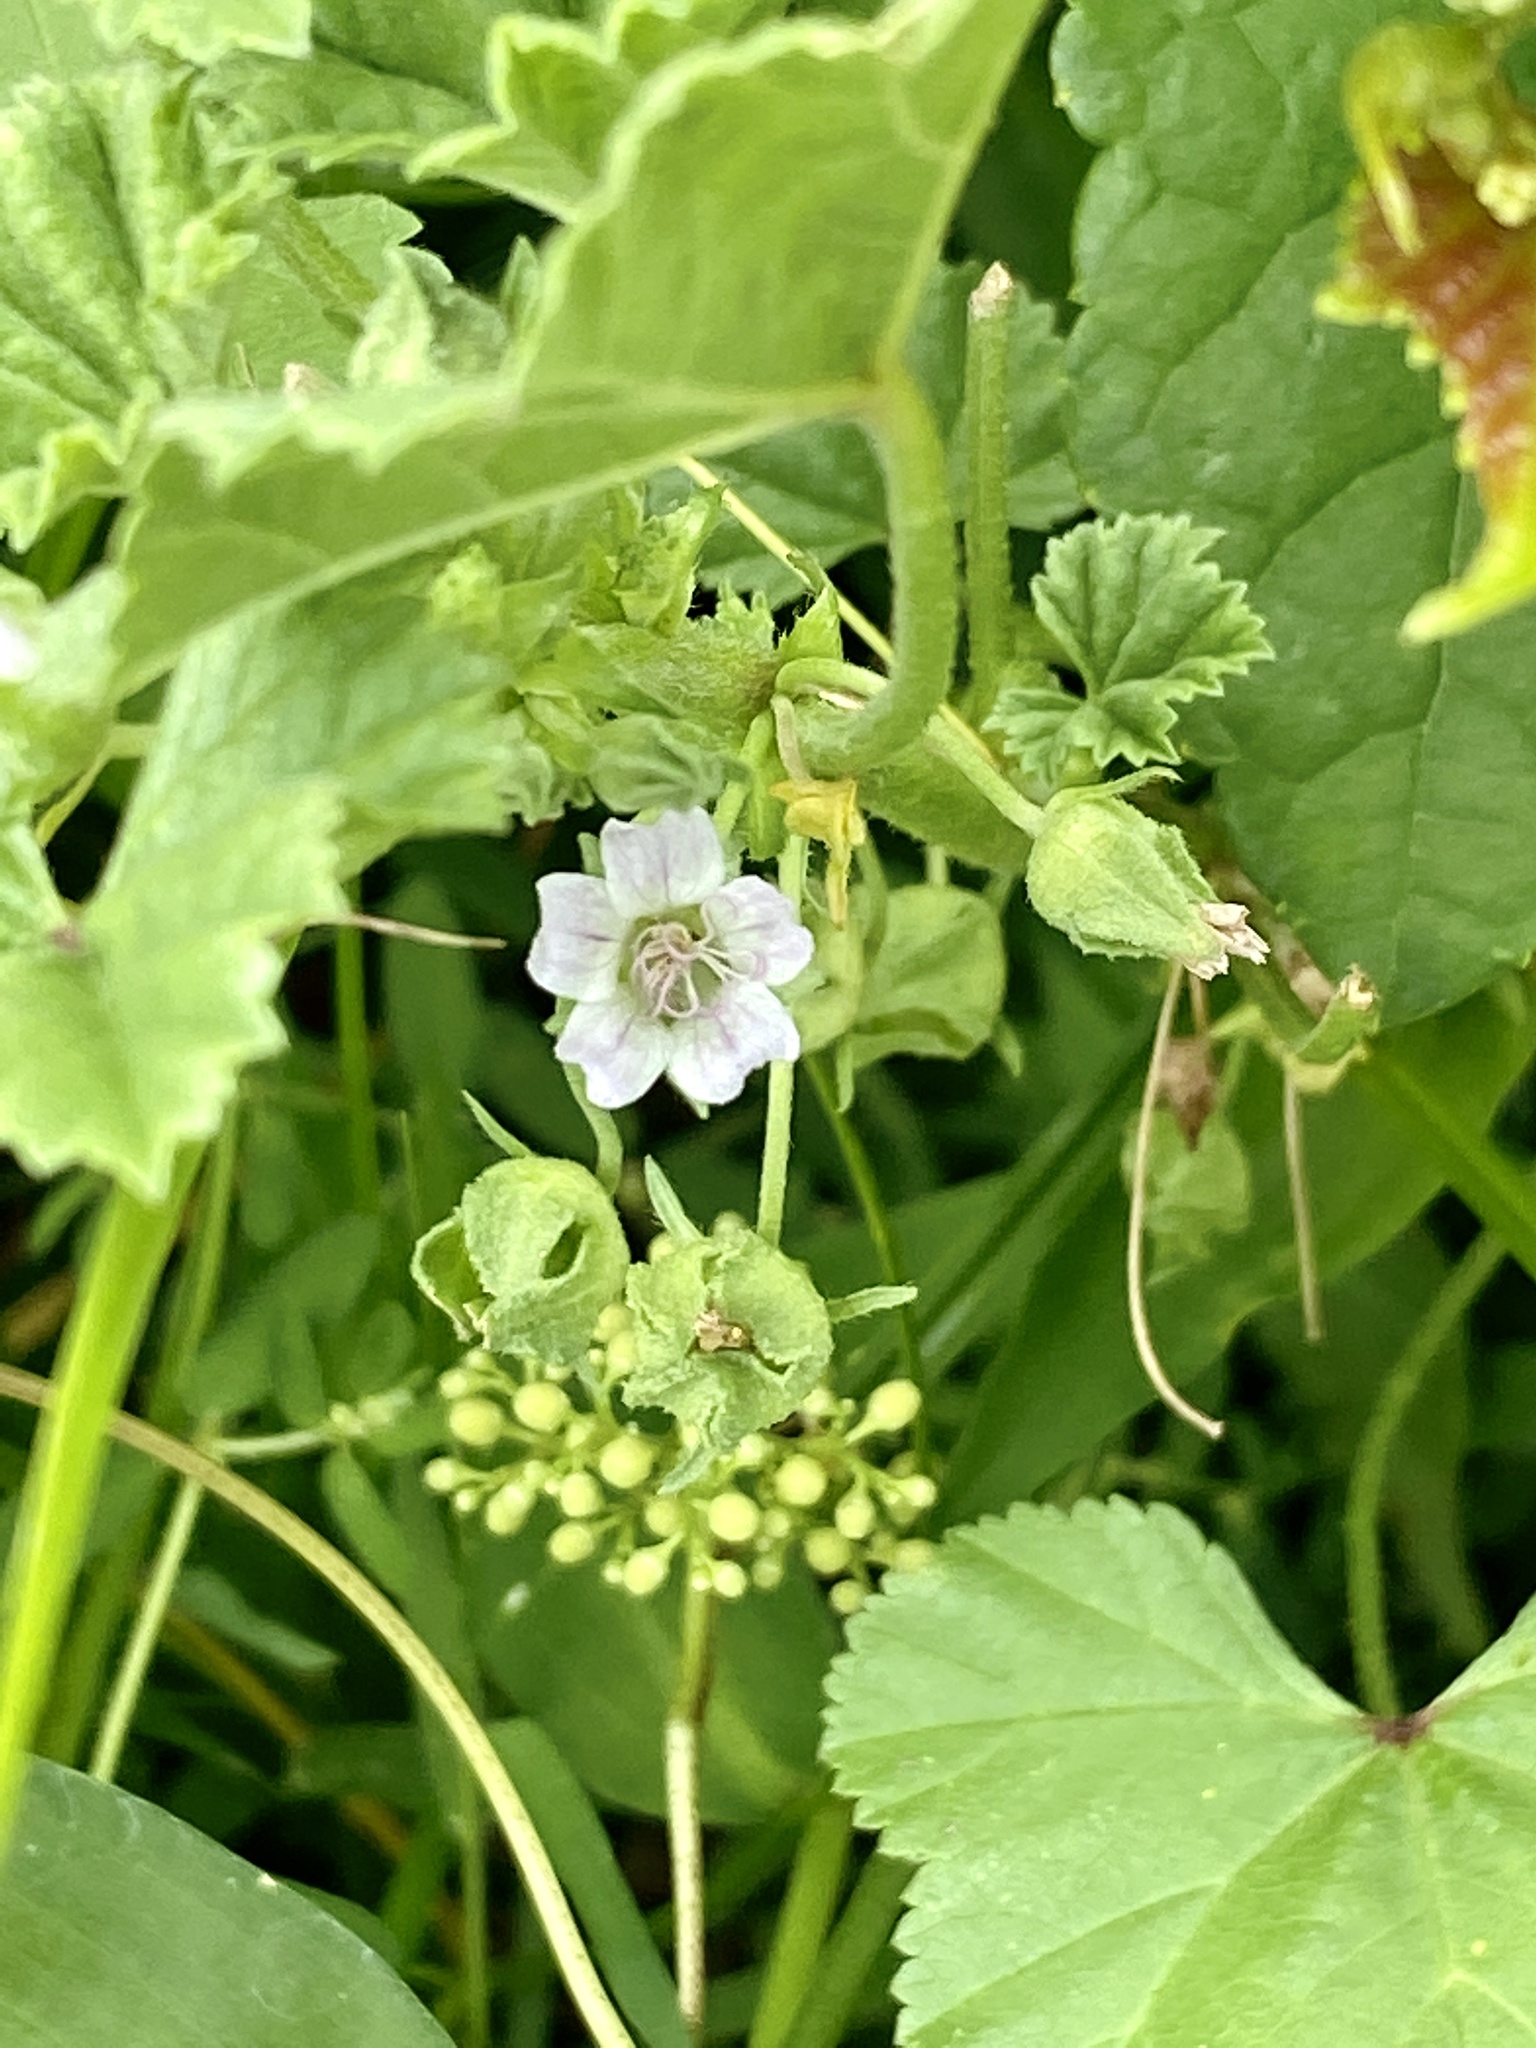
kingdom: Plantae
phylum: Tracheophyta
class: Magnoliopsida
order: Malvales
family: Malvaceae
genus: Malva
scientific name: Malva neglecta
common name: Common mallow
